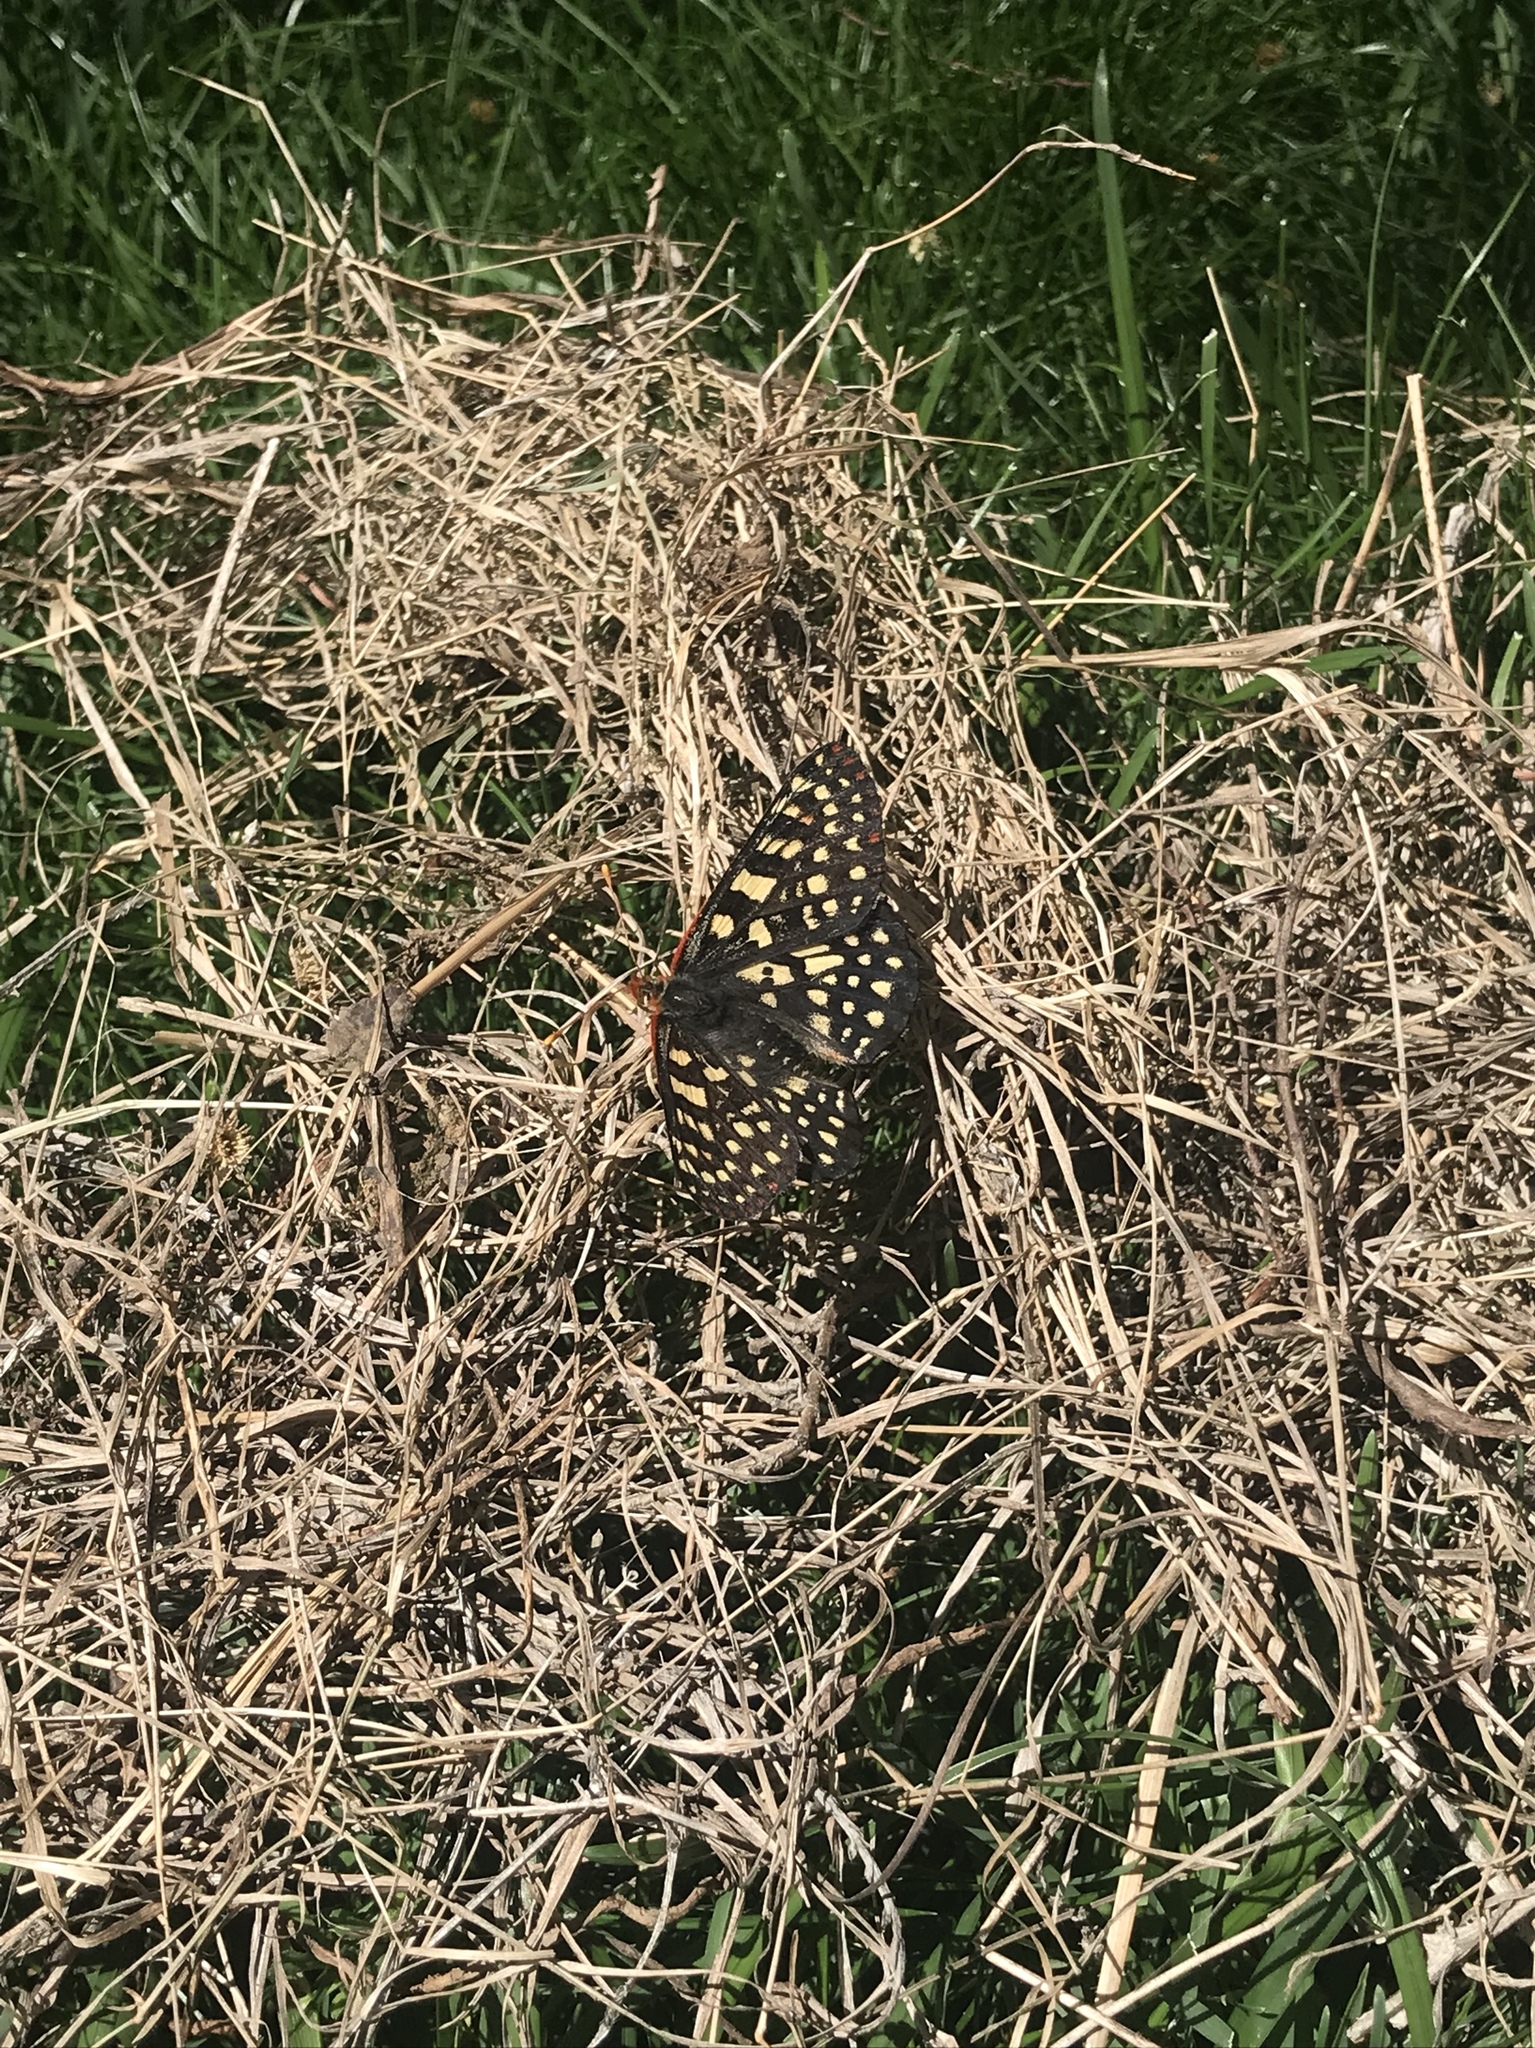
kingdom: Animalia
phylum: Arthropoda
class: Insecta
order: Lepidoptera
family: Nymphalidae
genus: Occidryas
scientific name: Occidryas chalcedona
